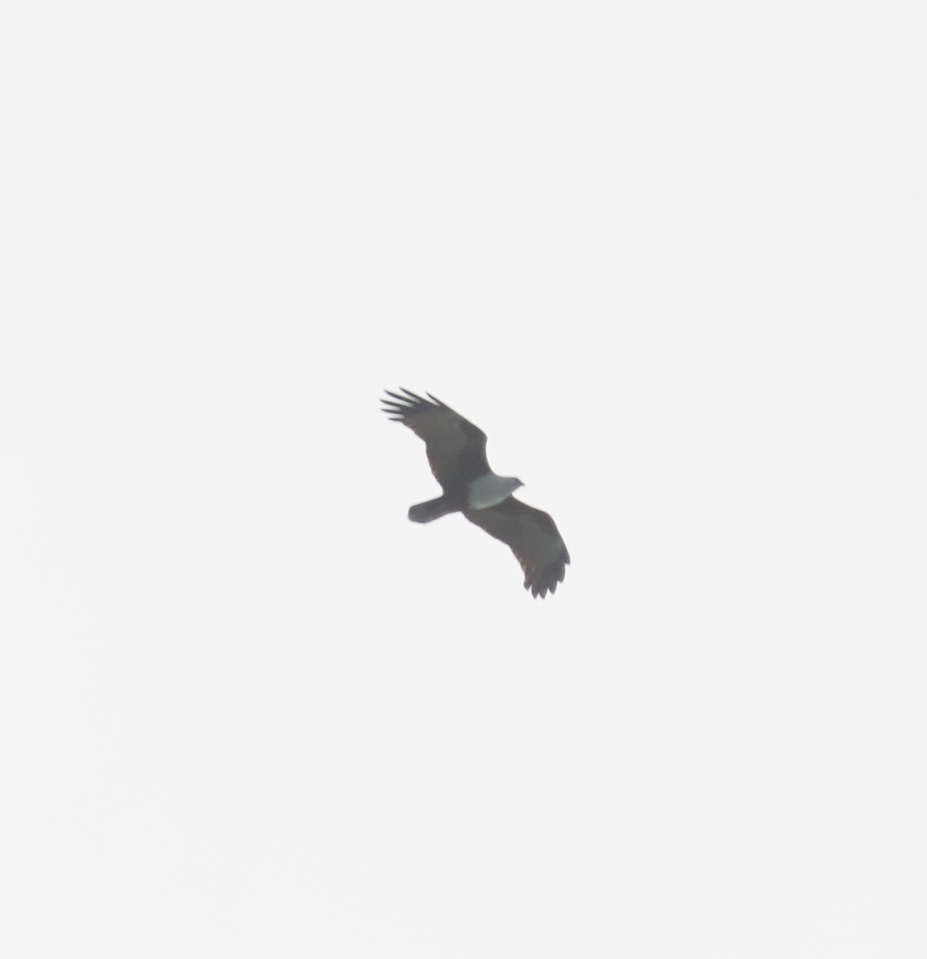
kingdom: Animalia
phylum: Chordata
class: Aves
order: Accipitriformes
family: Accipitridae
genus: Haliastur
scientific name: Haliastur indus
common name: Brahminy kite
